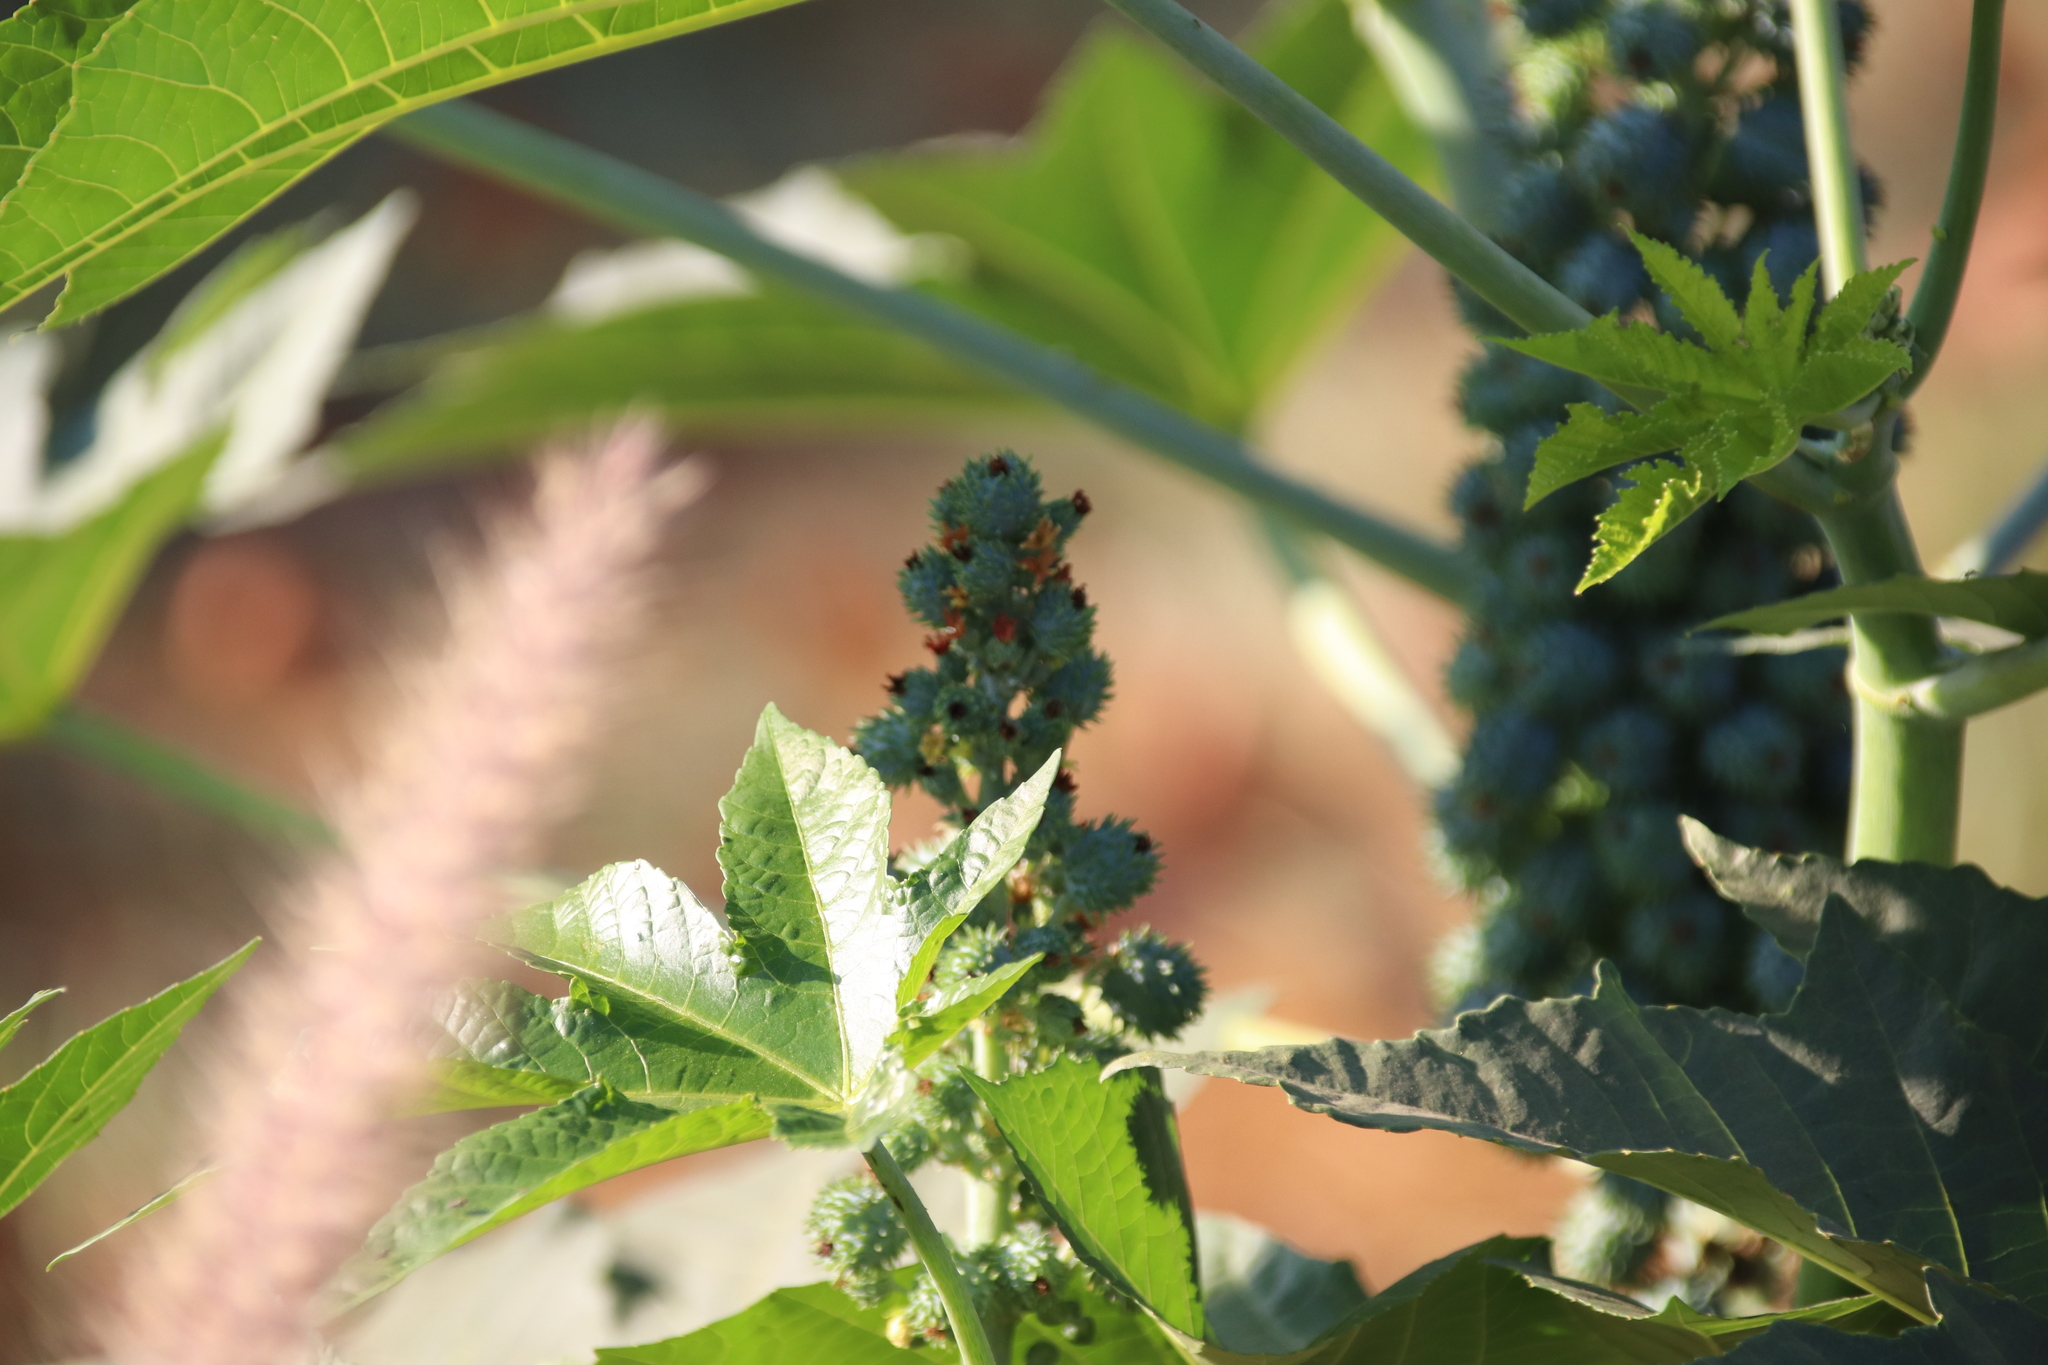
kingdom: Plantae
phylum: Tracheophyta
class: Magnoliopsida
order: Malpighiales
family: Euphorbiaceae
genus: Ricinus
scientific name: Ricinus communis
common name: Castor-oil-plant
